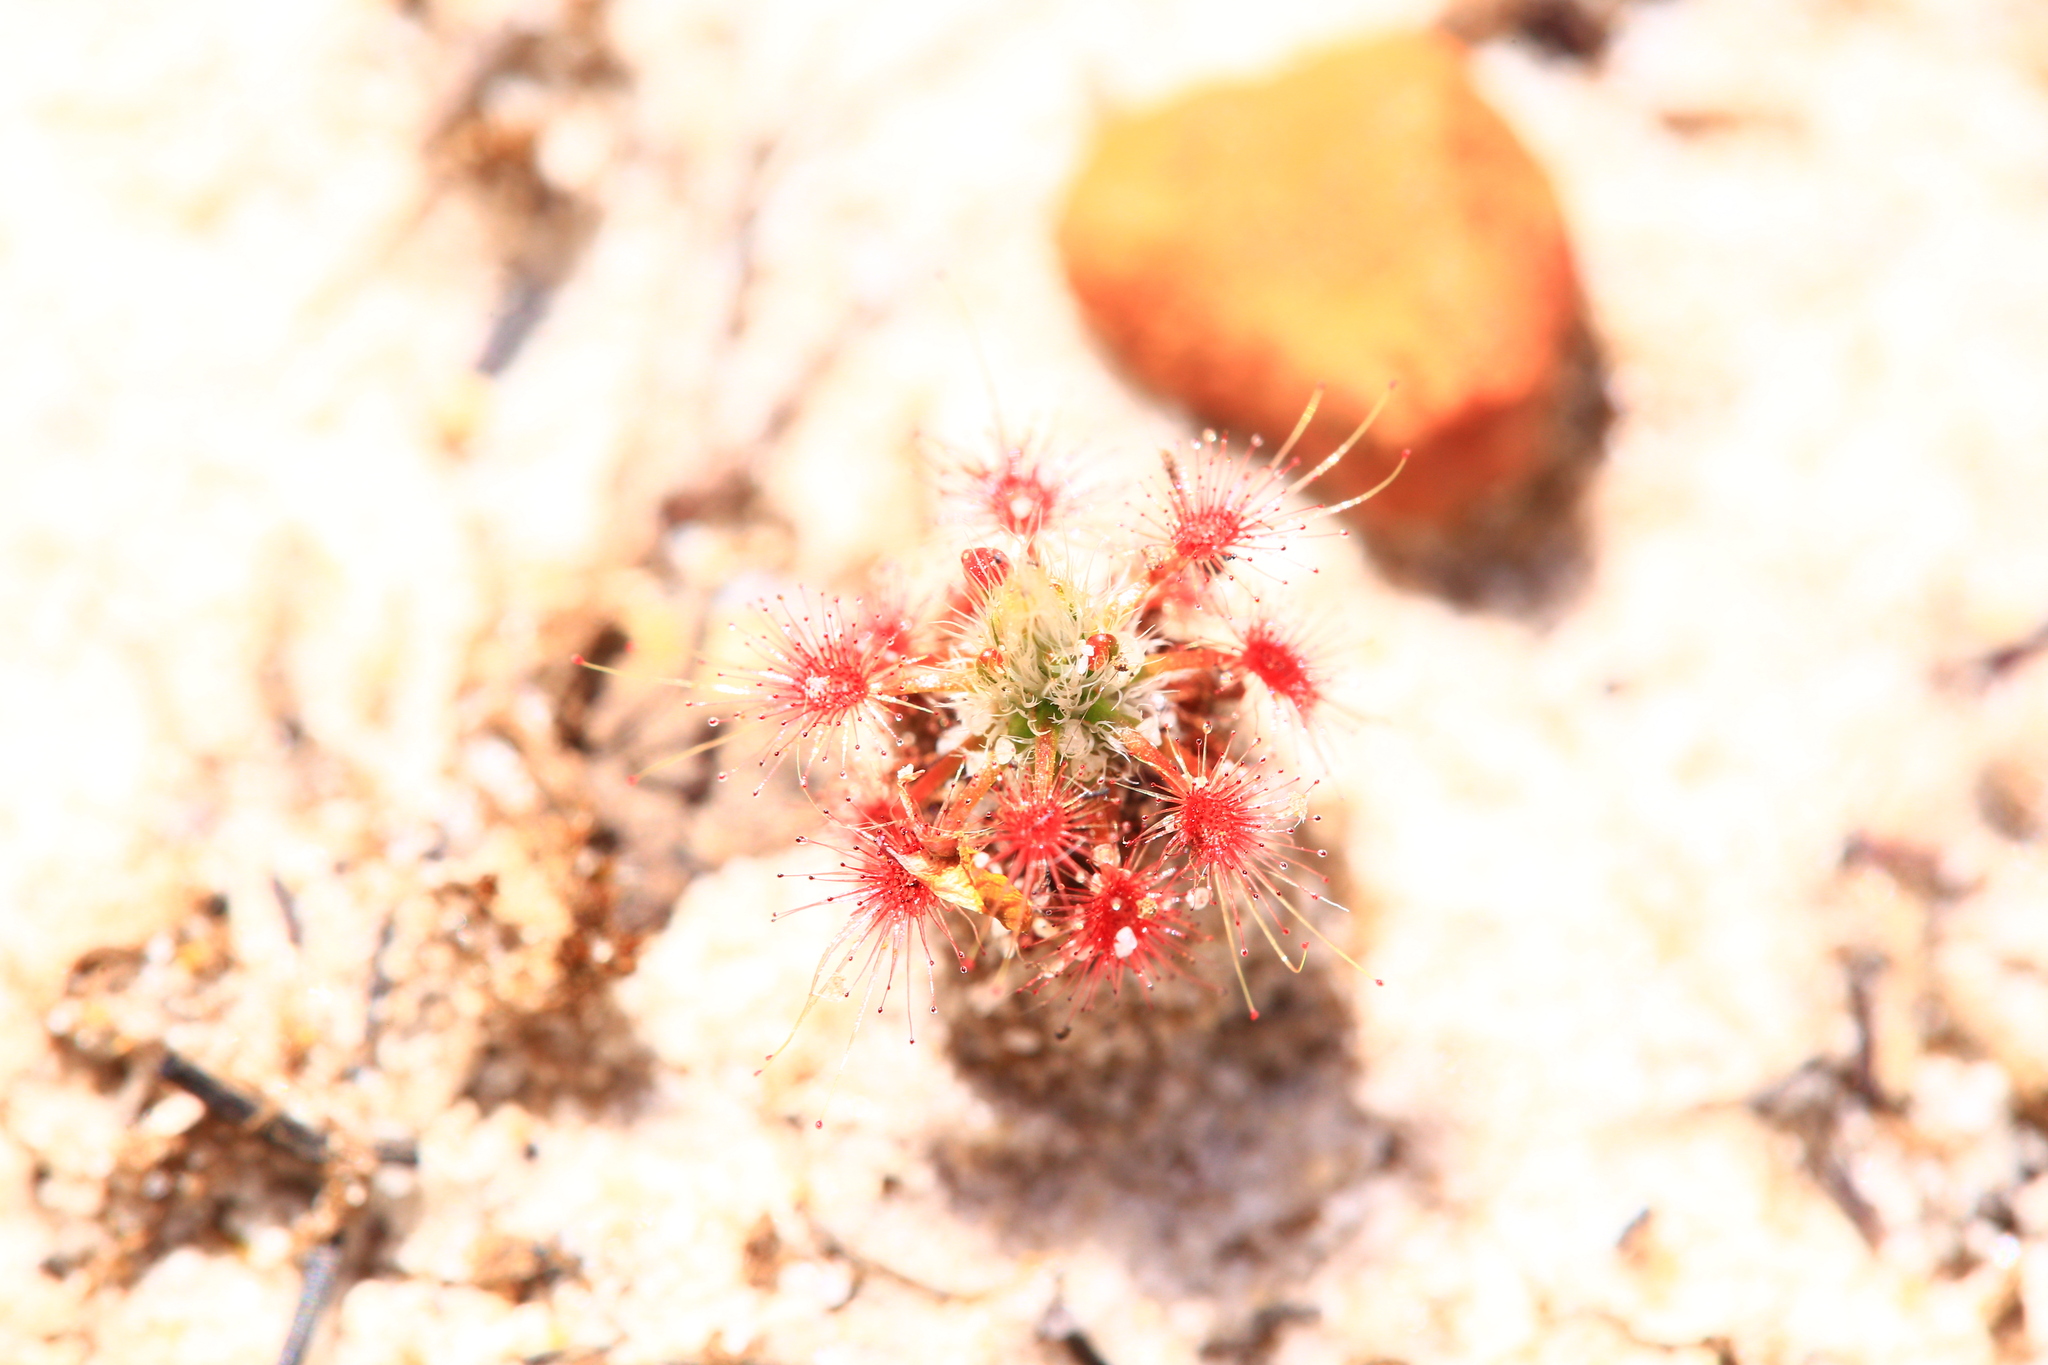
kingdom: Plantae
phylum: Tracheophyta
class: Magnoliopsida
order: Caryophyllales
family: Droseraceae
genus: Drosera
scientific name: Drosera paleacea
